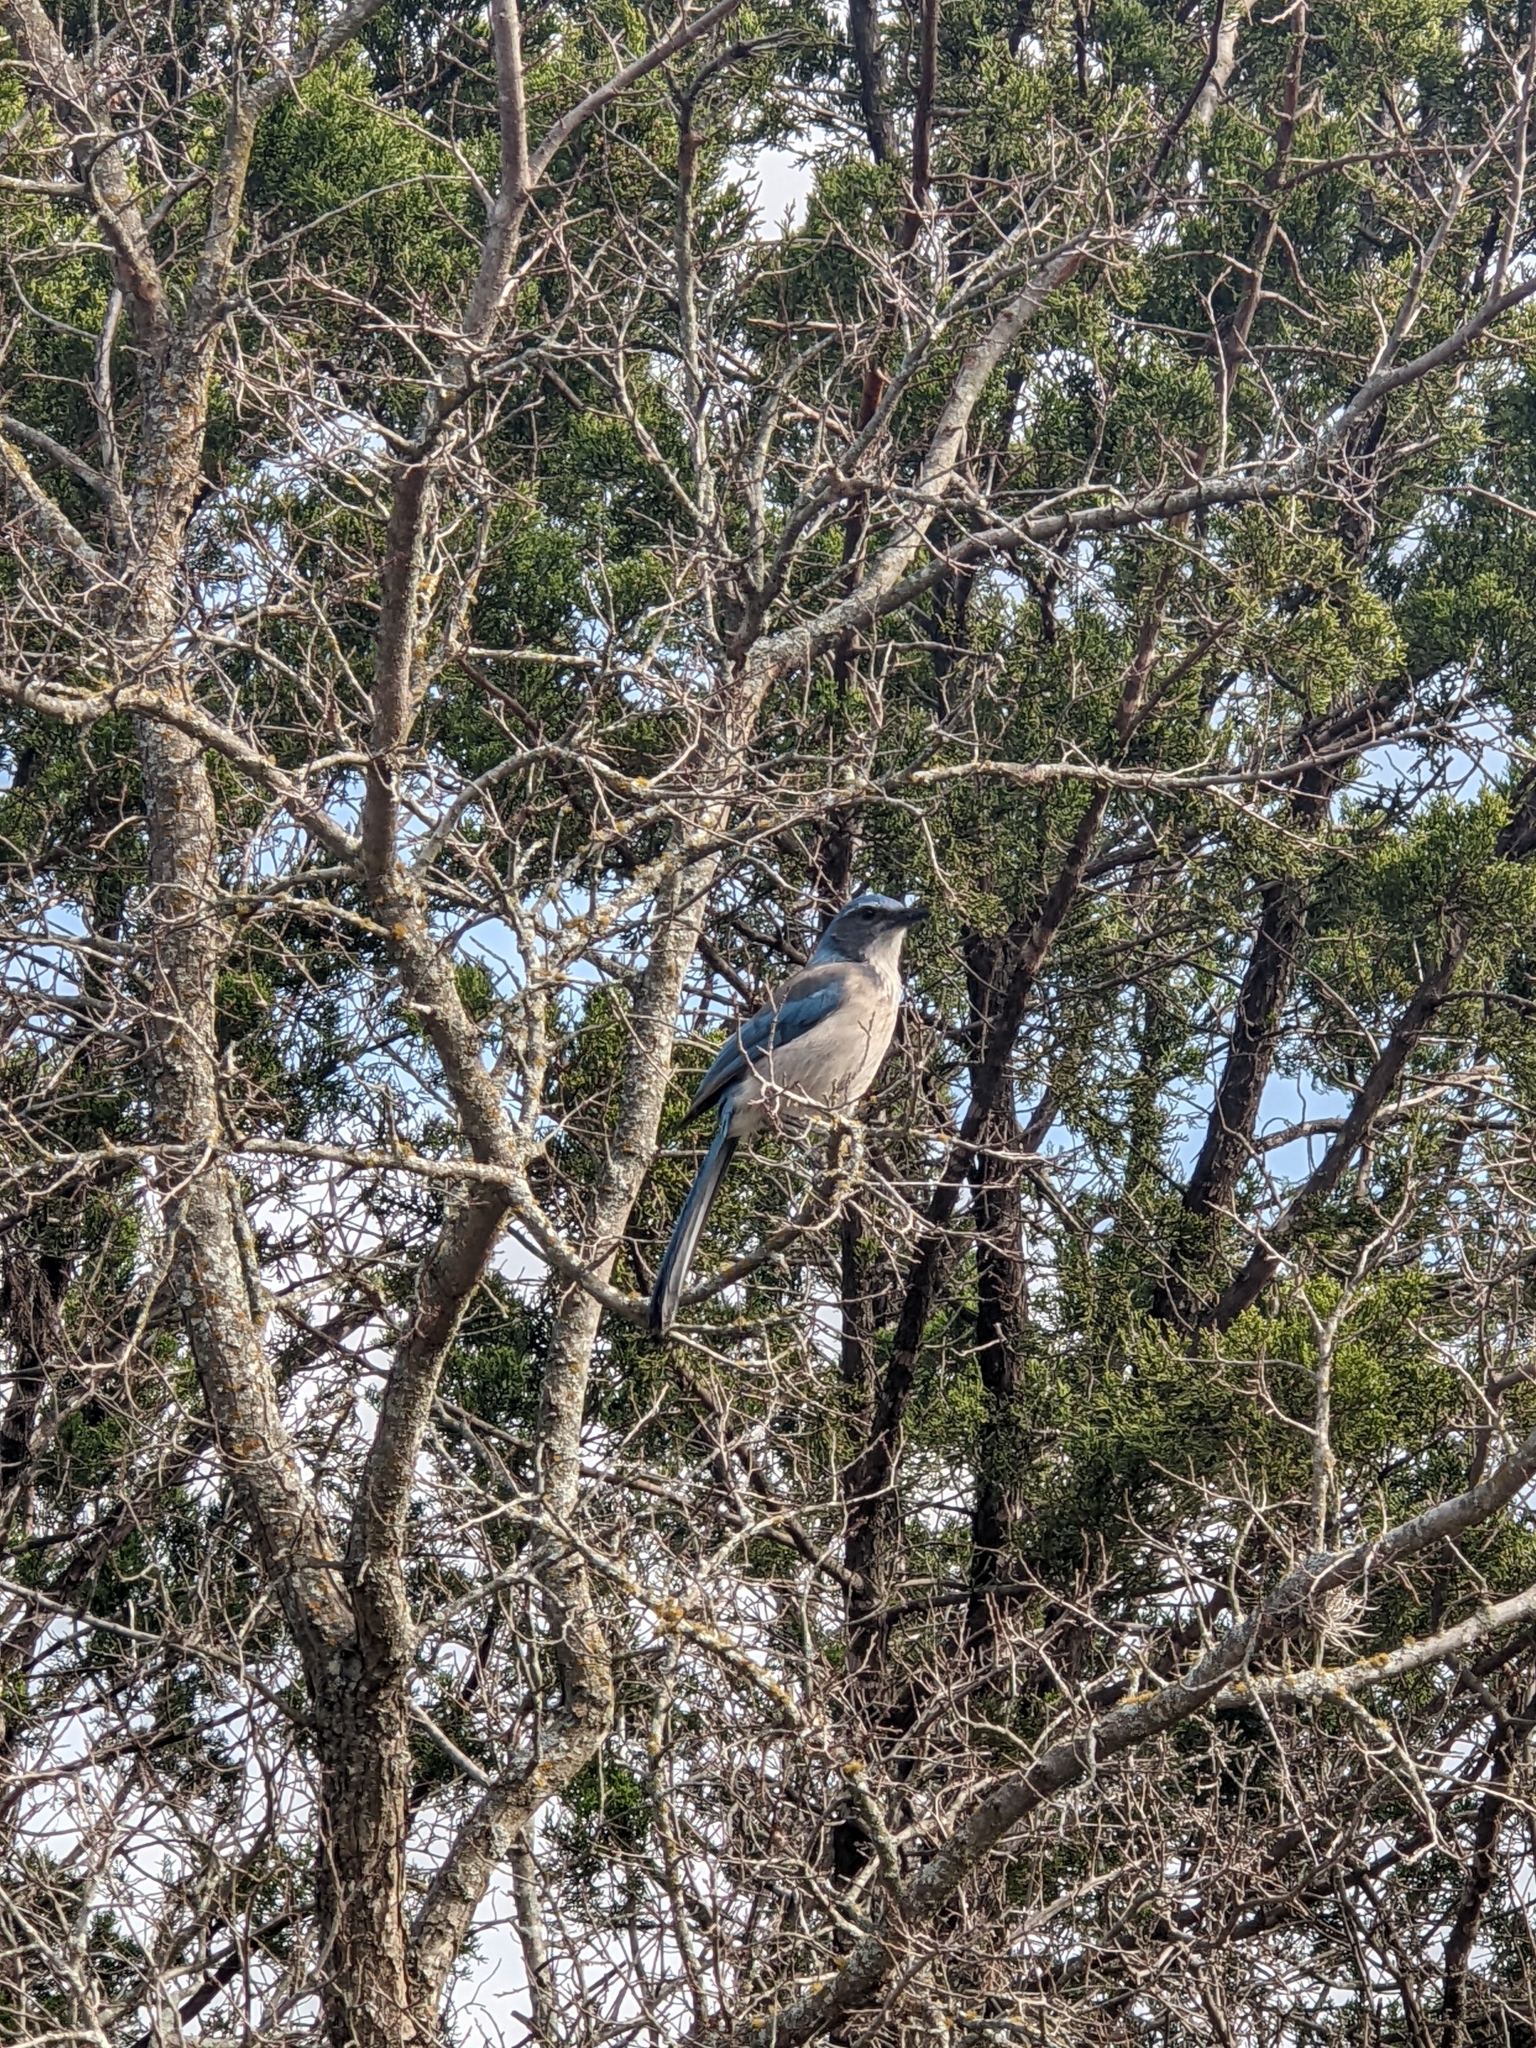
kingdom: Animalia
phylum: Chordata
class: Aves
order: Passeriformes
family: Corvidae
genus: Aphelocoma
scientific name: Aphelocoma woodhouseii
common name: Woodhouse's scrub-jay
